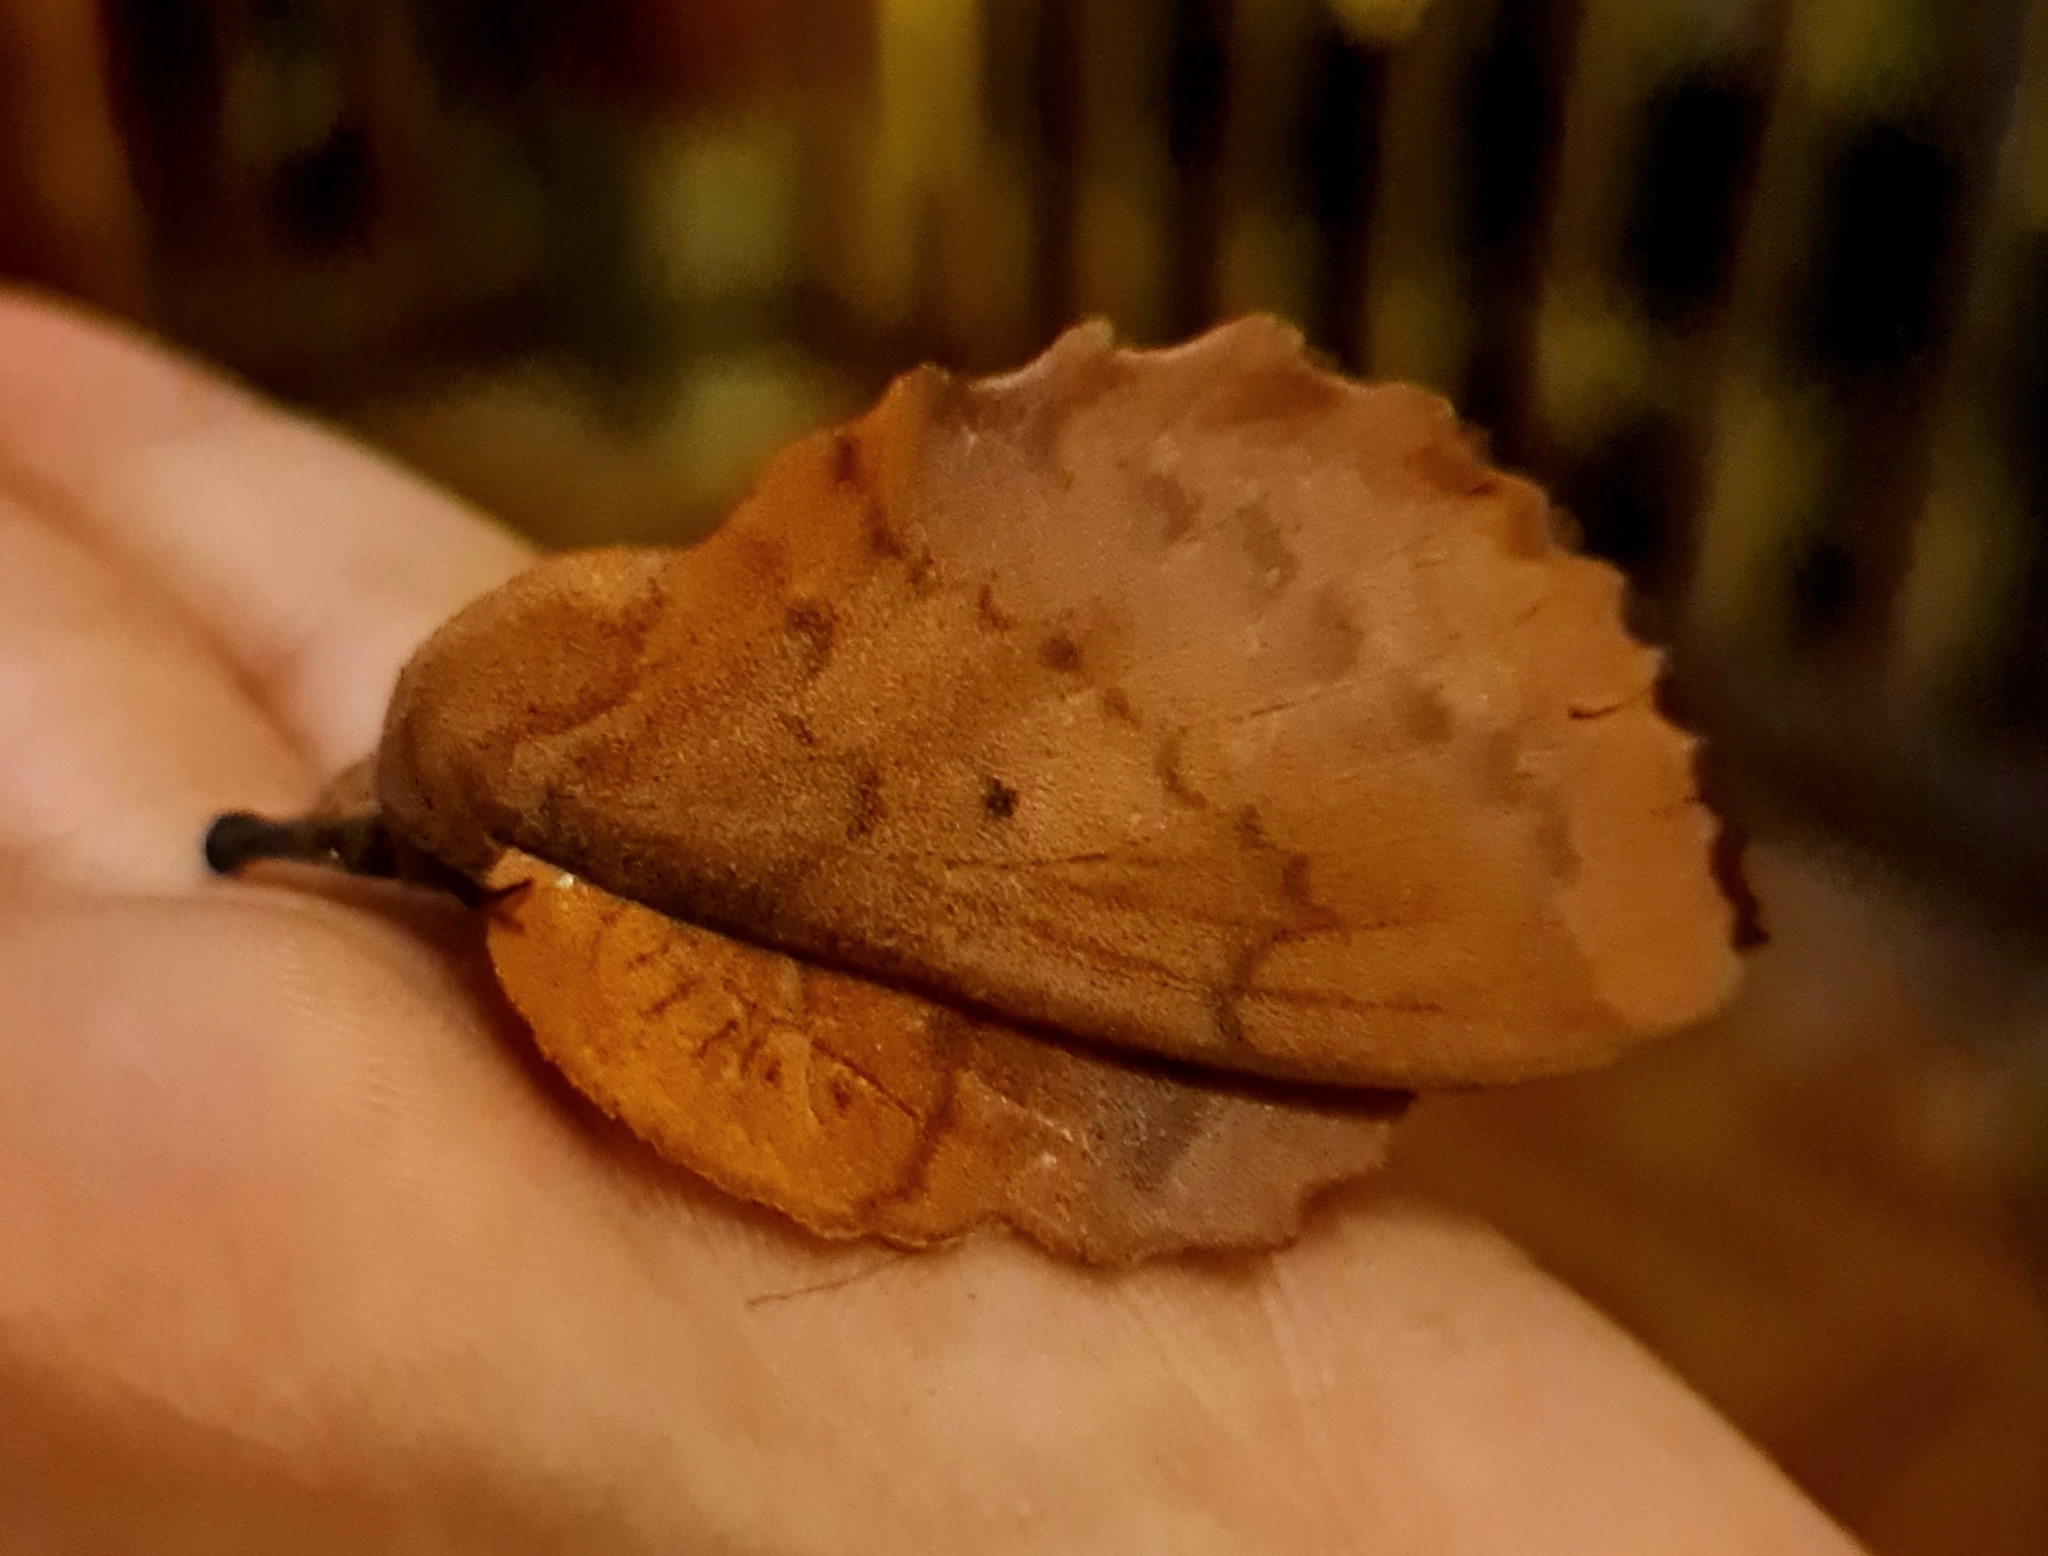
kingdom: Animalia
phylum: Arthropoda
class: Insecta
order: Lepidoptera
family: Lasiocampidae
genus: Gastropacha
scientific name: Gastropacha quercifolia
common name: Lappet
